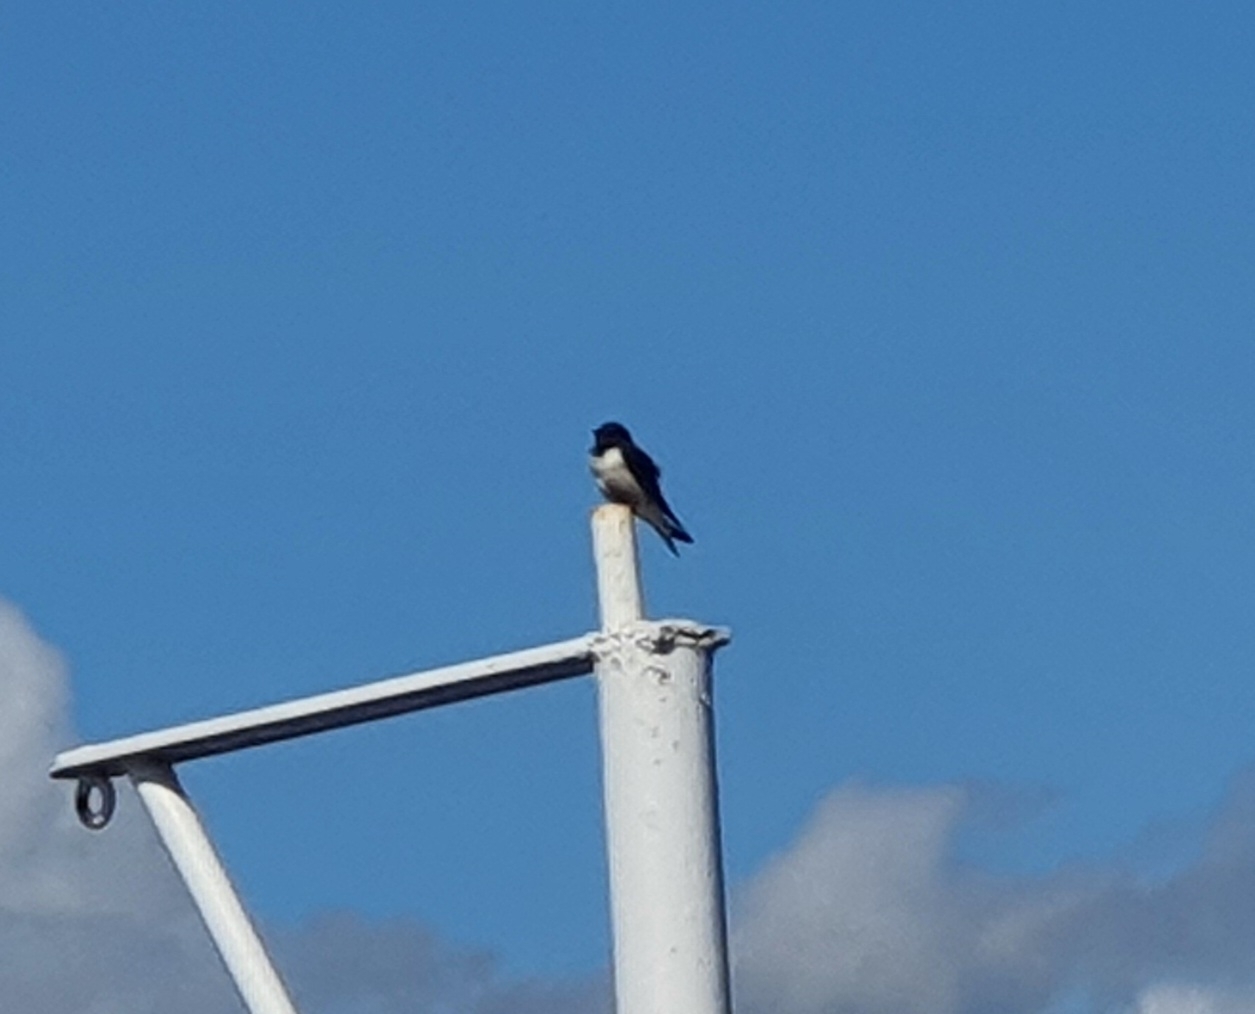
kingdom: Animalia
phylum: Chordata
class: Aves
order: Passeriformes
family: Hirundinidae
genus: Hirundo
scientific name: Hirundo rustica
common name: Barn swallow
